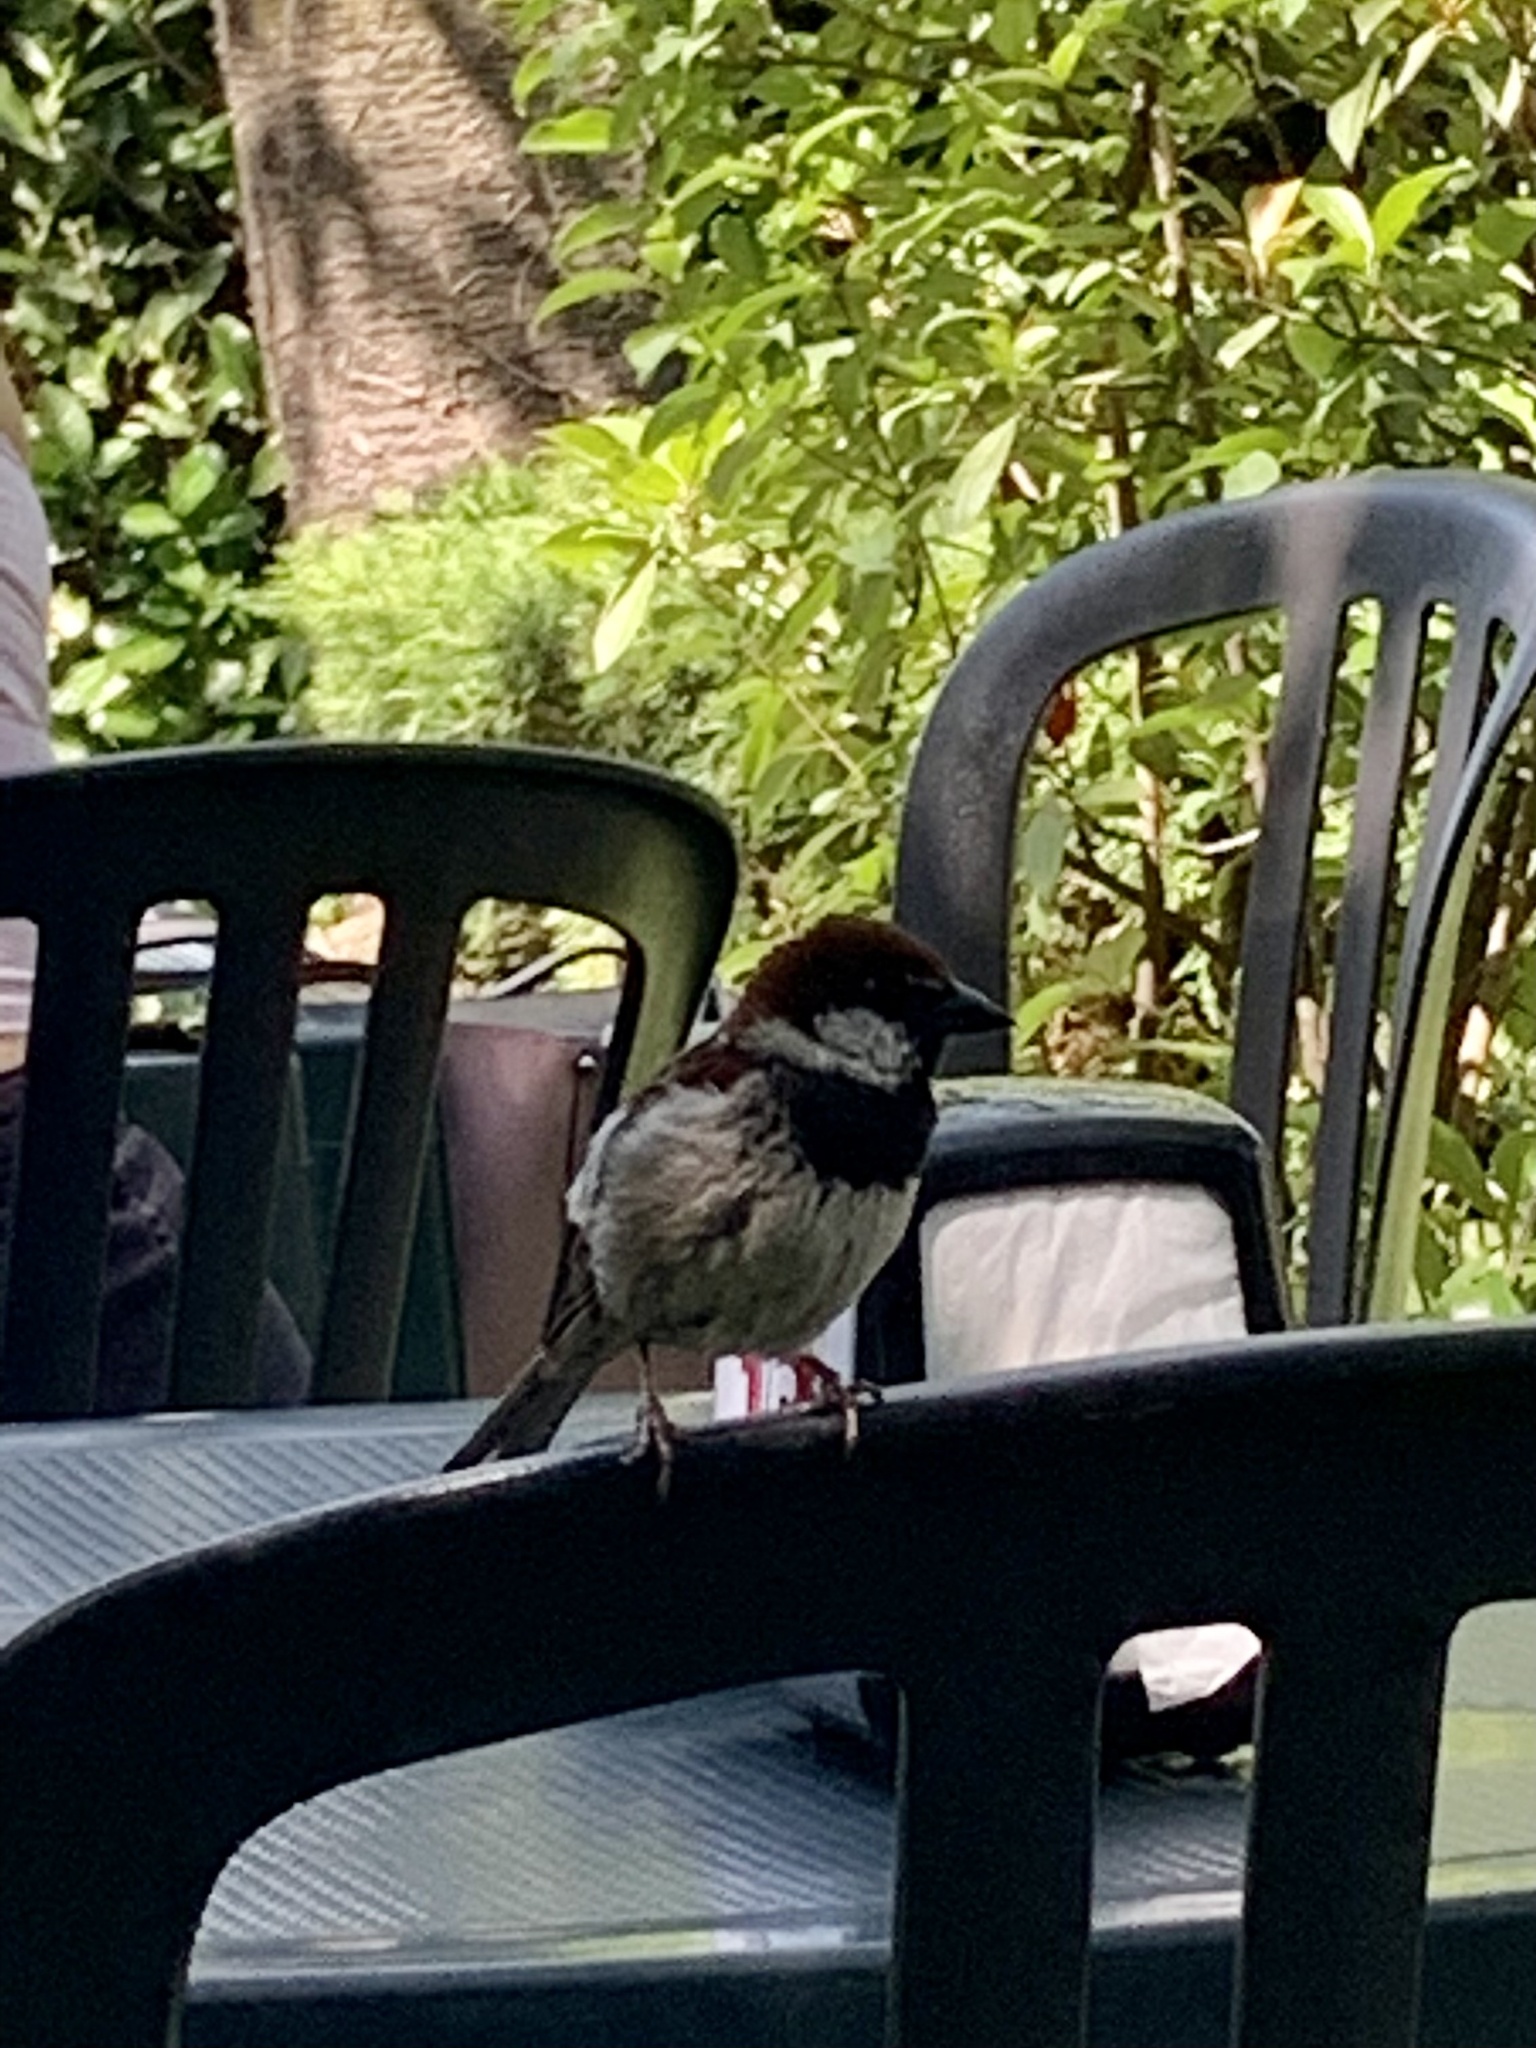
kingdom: Animalia
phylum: Chordata
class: Aves
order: Passeriformes
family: Passeridae
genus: Passer
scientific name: Passer italiae
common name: Italian sparrow
